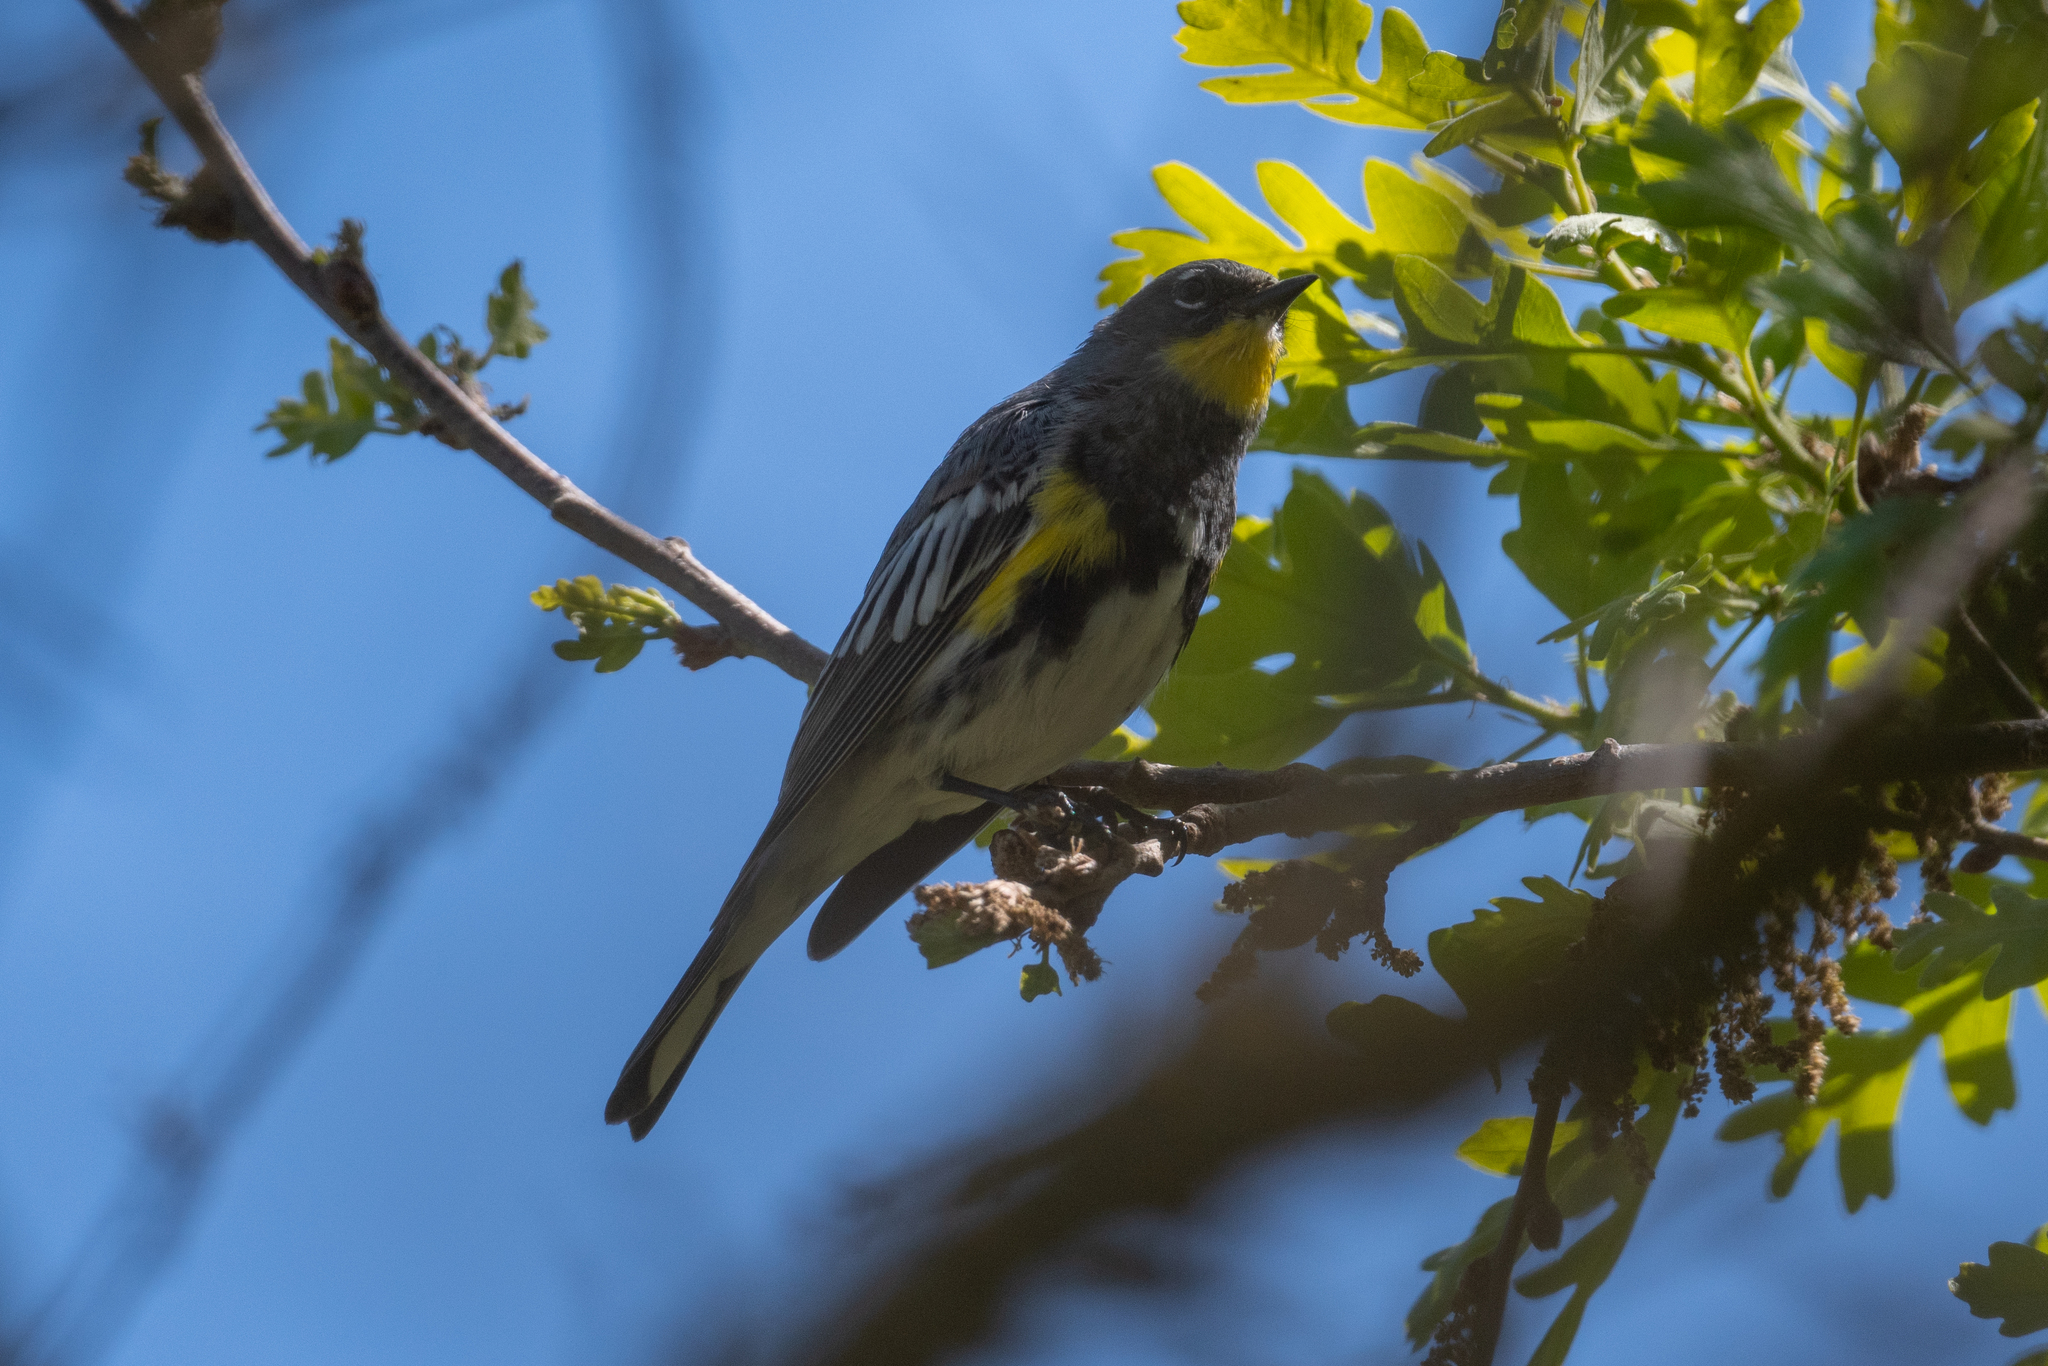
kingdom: Animalia
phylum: Chordata
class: Aves
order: Passeriformes
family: Parulidae
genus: Setophaga
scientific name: Setophaga coronata
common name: Myrtle warbler
